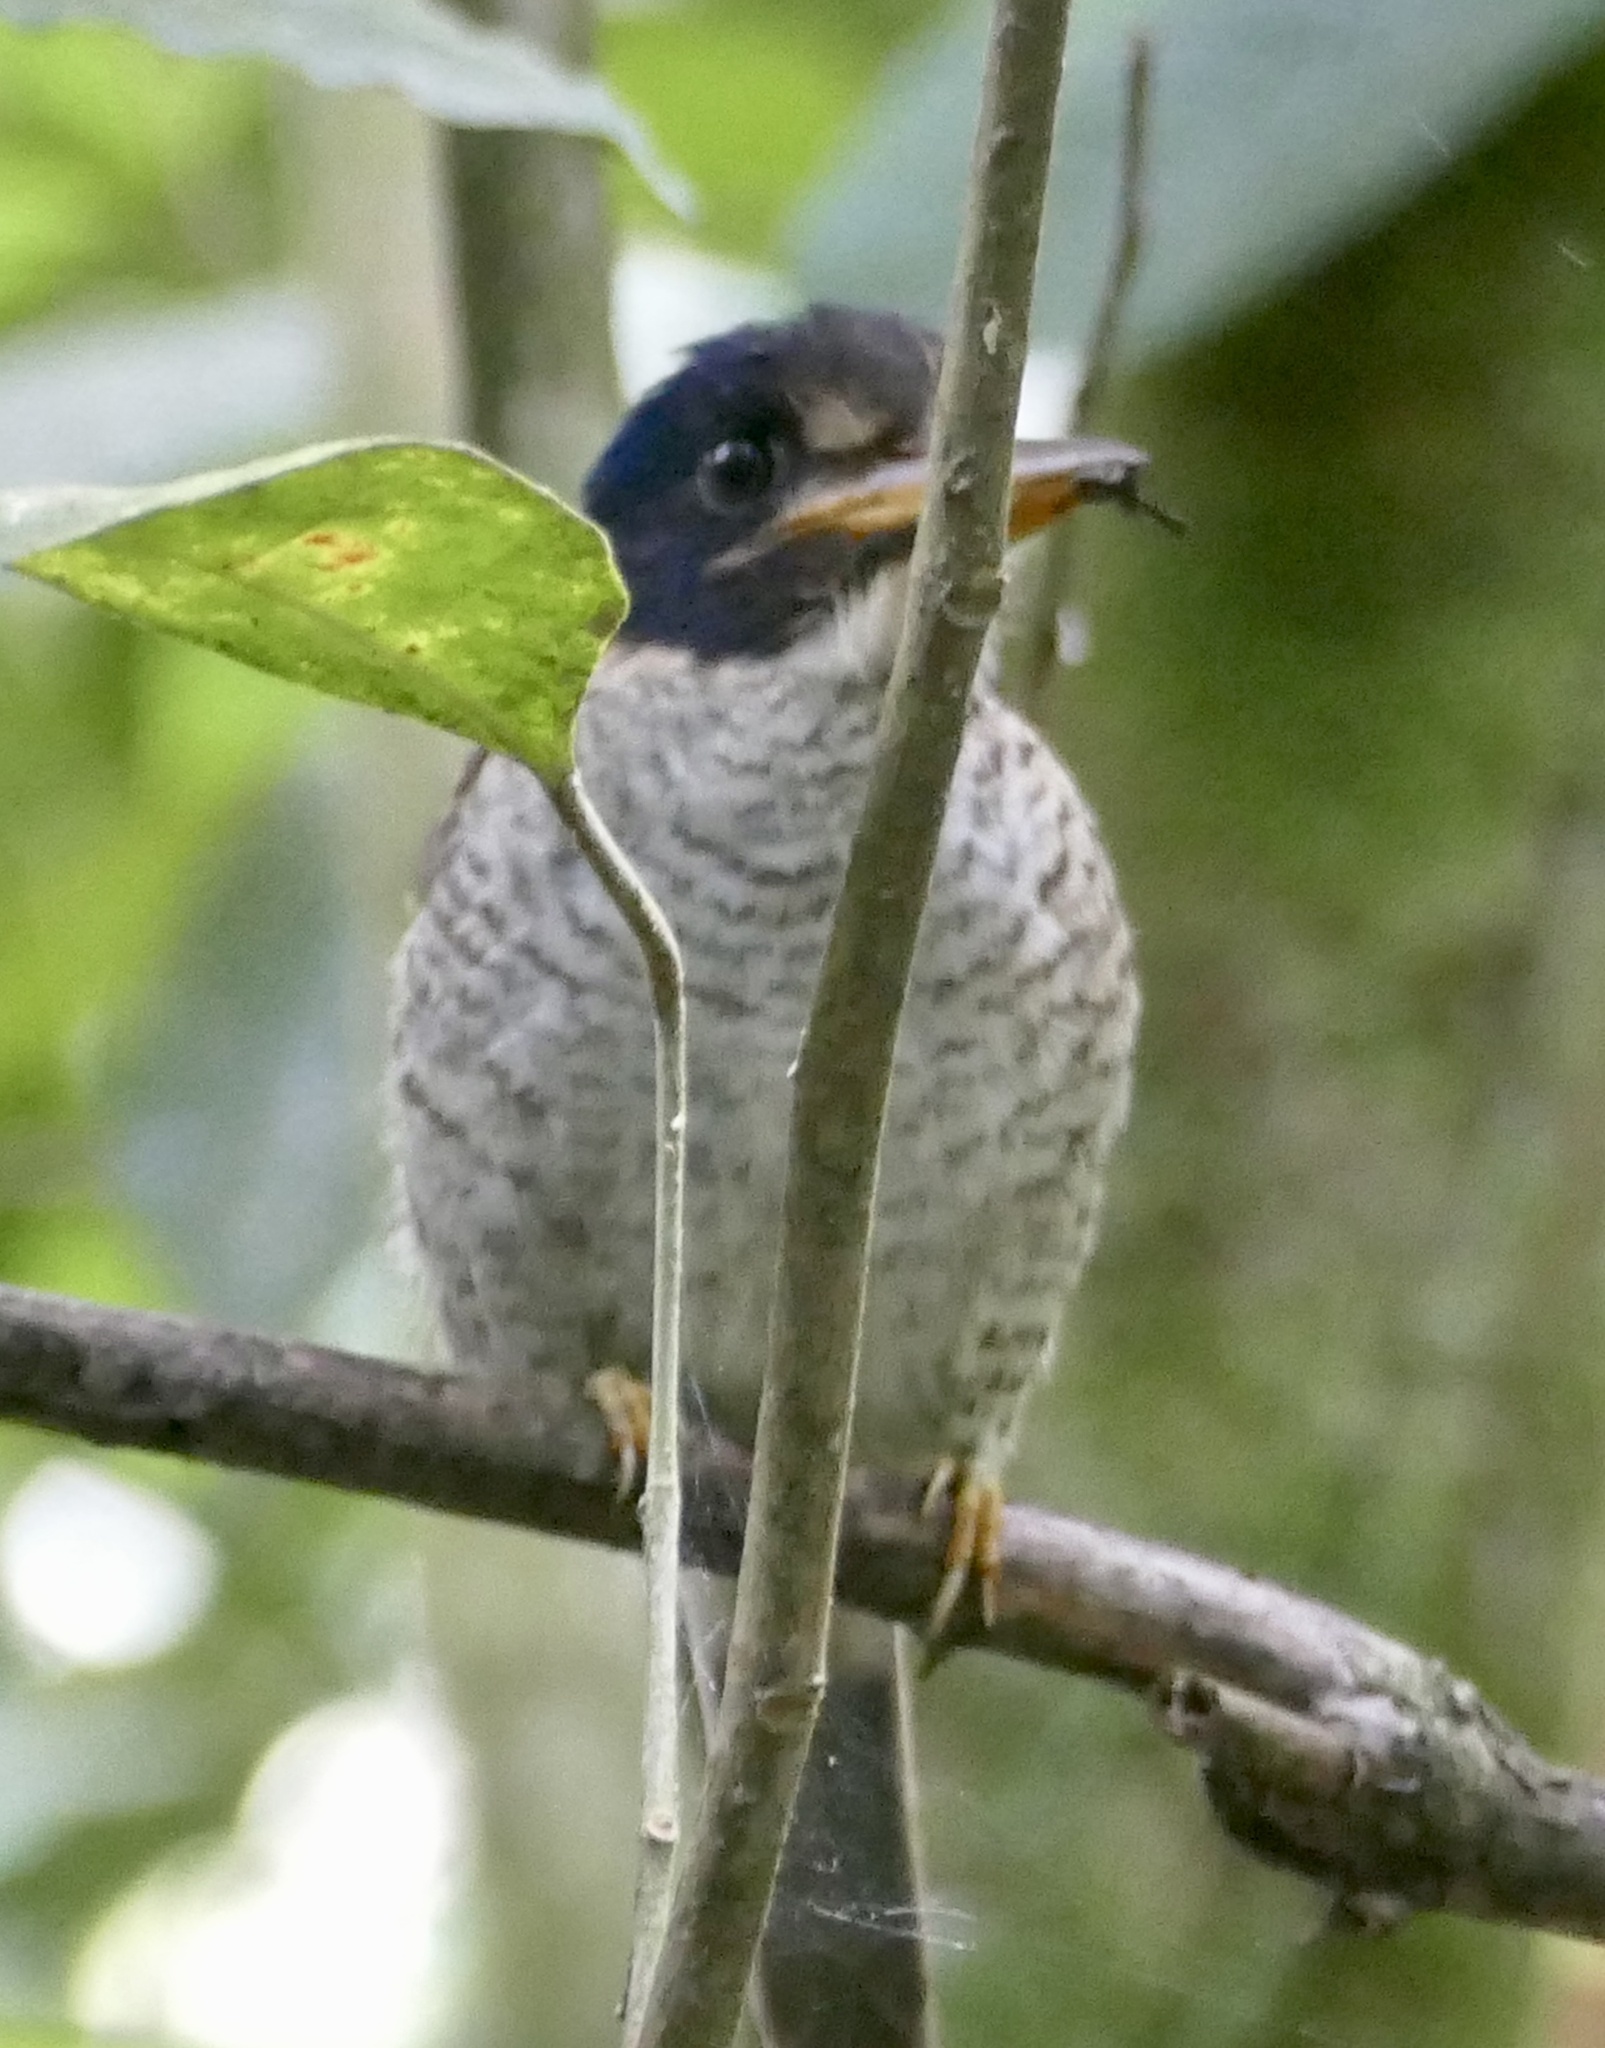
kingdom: Animalia
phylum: Chordata
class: Aves
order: Coraciiformes
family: Alcedinidae
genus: Actenoides
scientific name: Actenoides princeps
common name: Scaly-breasted kingfisher
